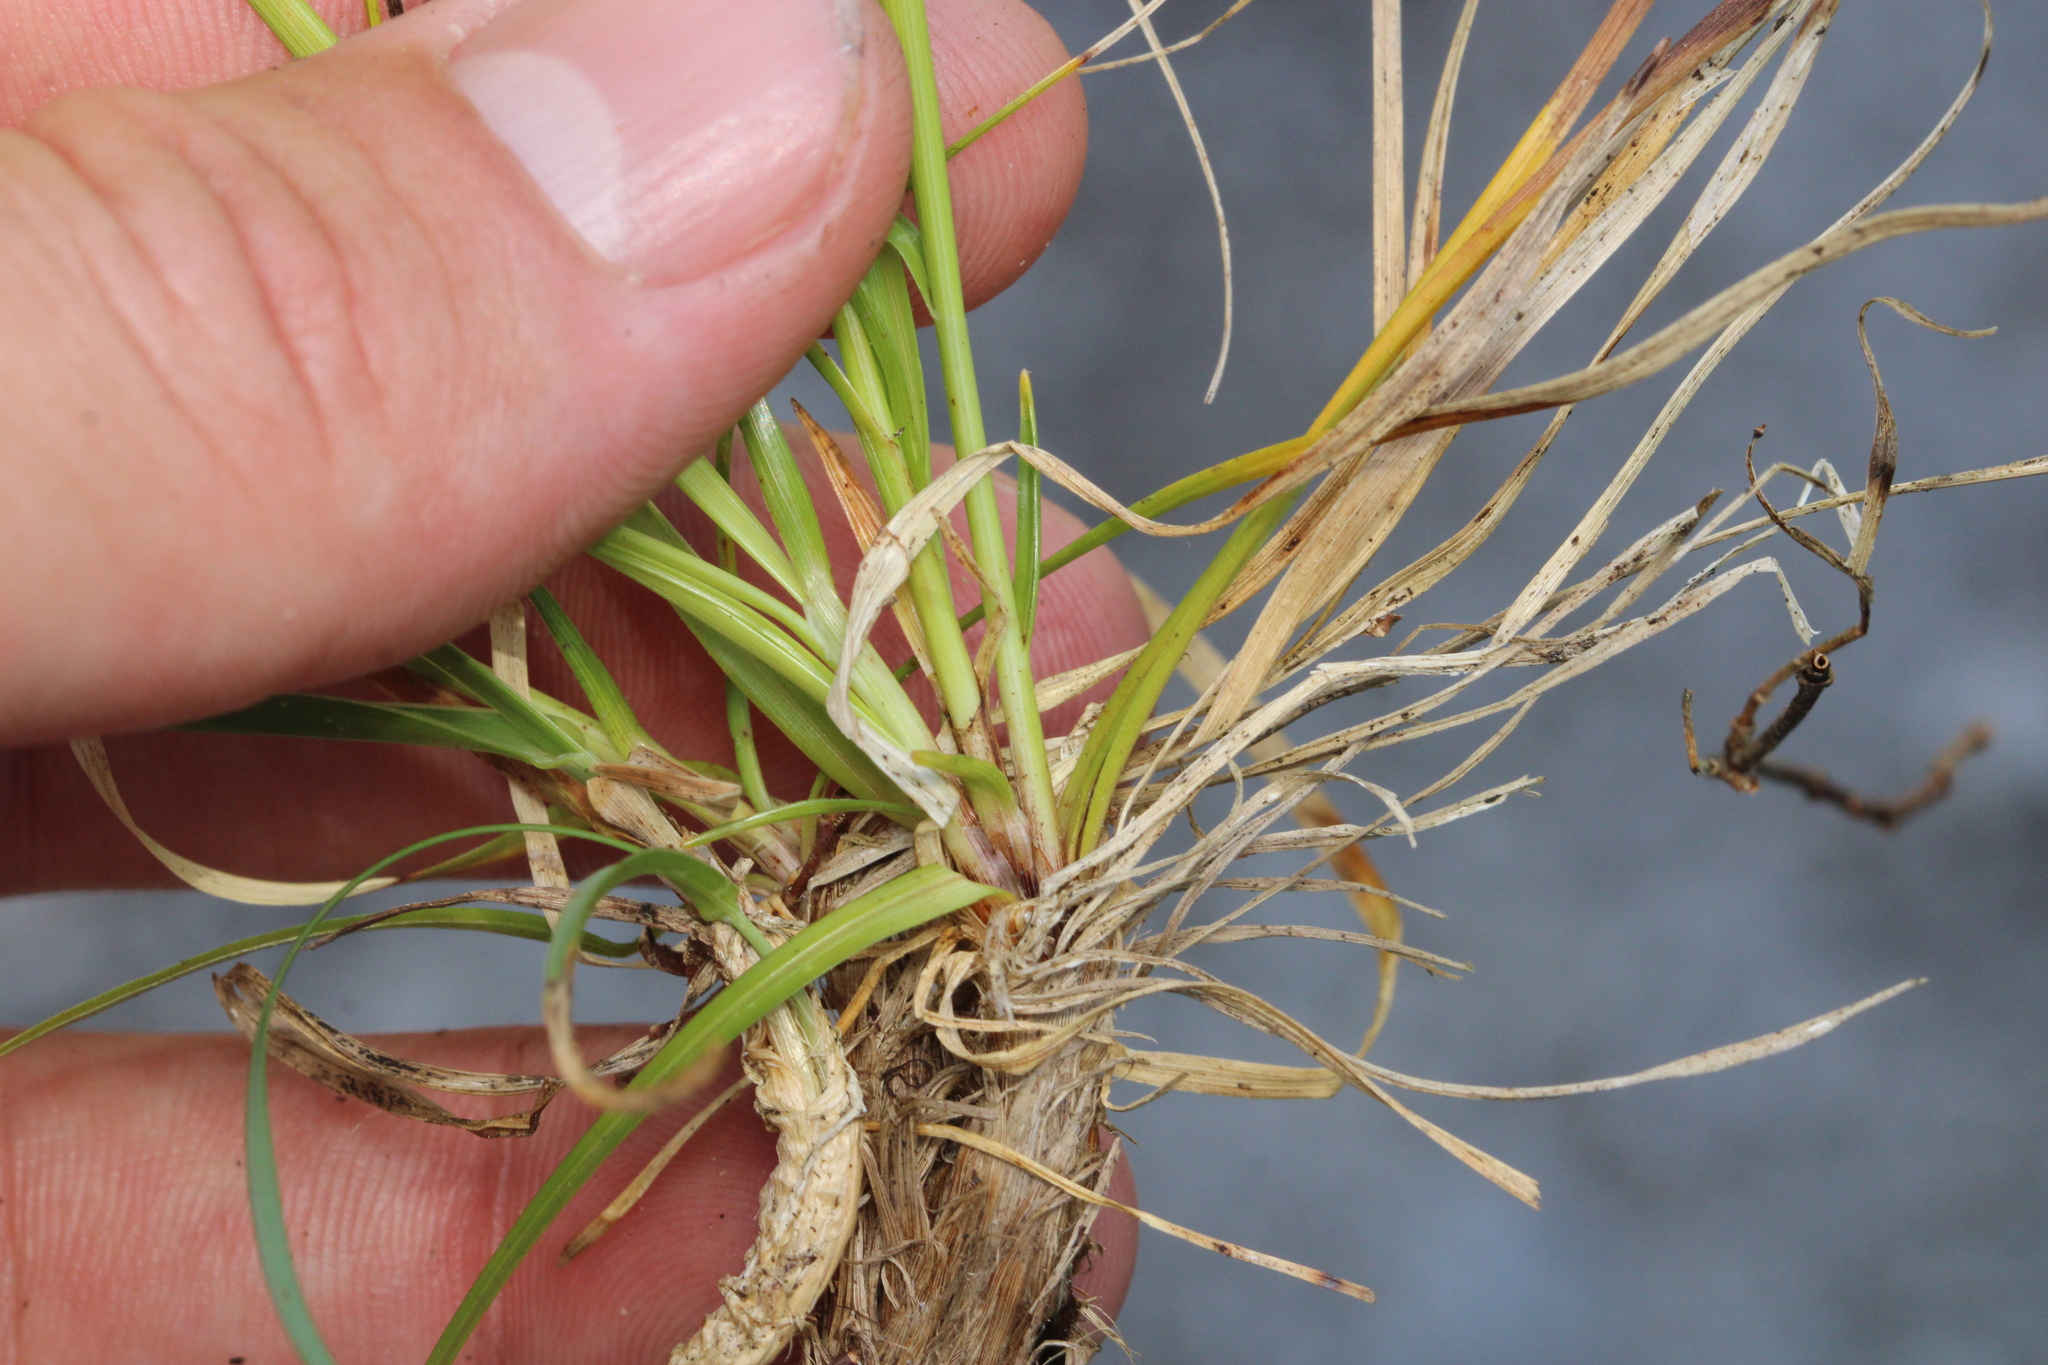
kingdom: Plantae
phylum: Tracheophyta
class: Liliopsida
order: Poales
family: Cyperaceae
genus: Carex
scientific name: Carex sempervirens
